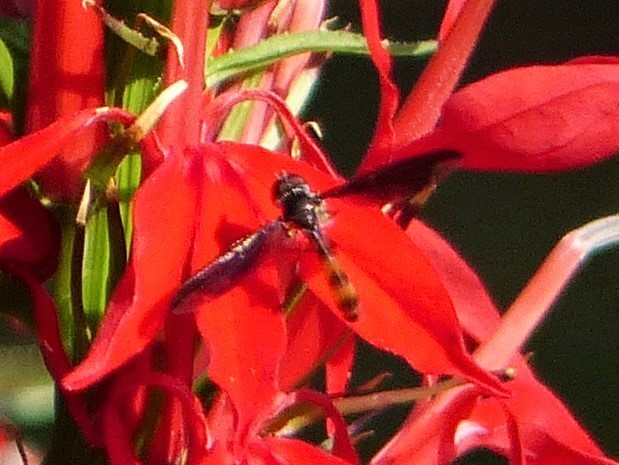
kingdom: Animalia
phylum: Arthropoda
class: Insecta
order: Diptera
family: Syrphidae
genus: Ocyptamus
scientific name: Ocyptamus fuscipennis
